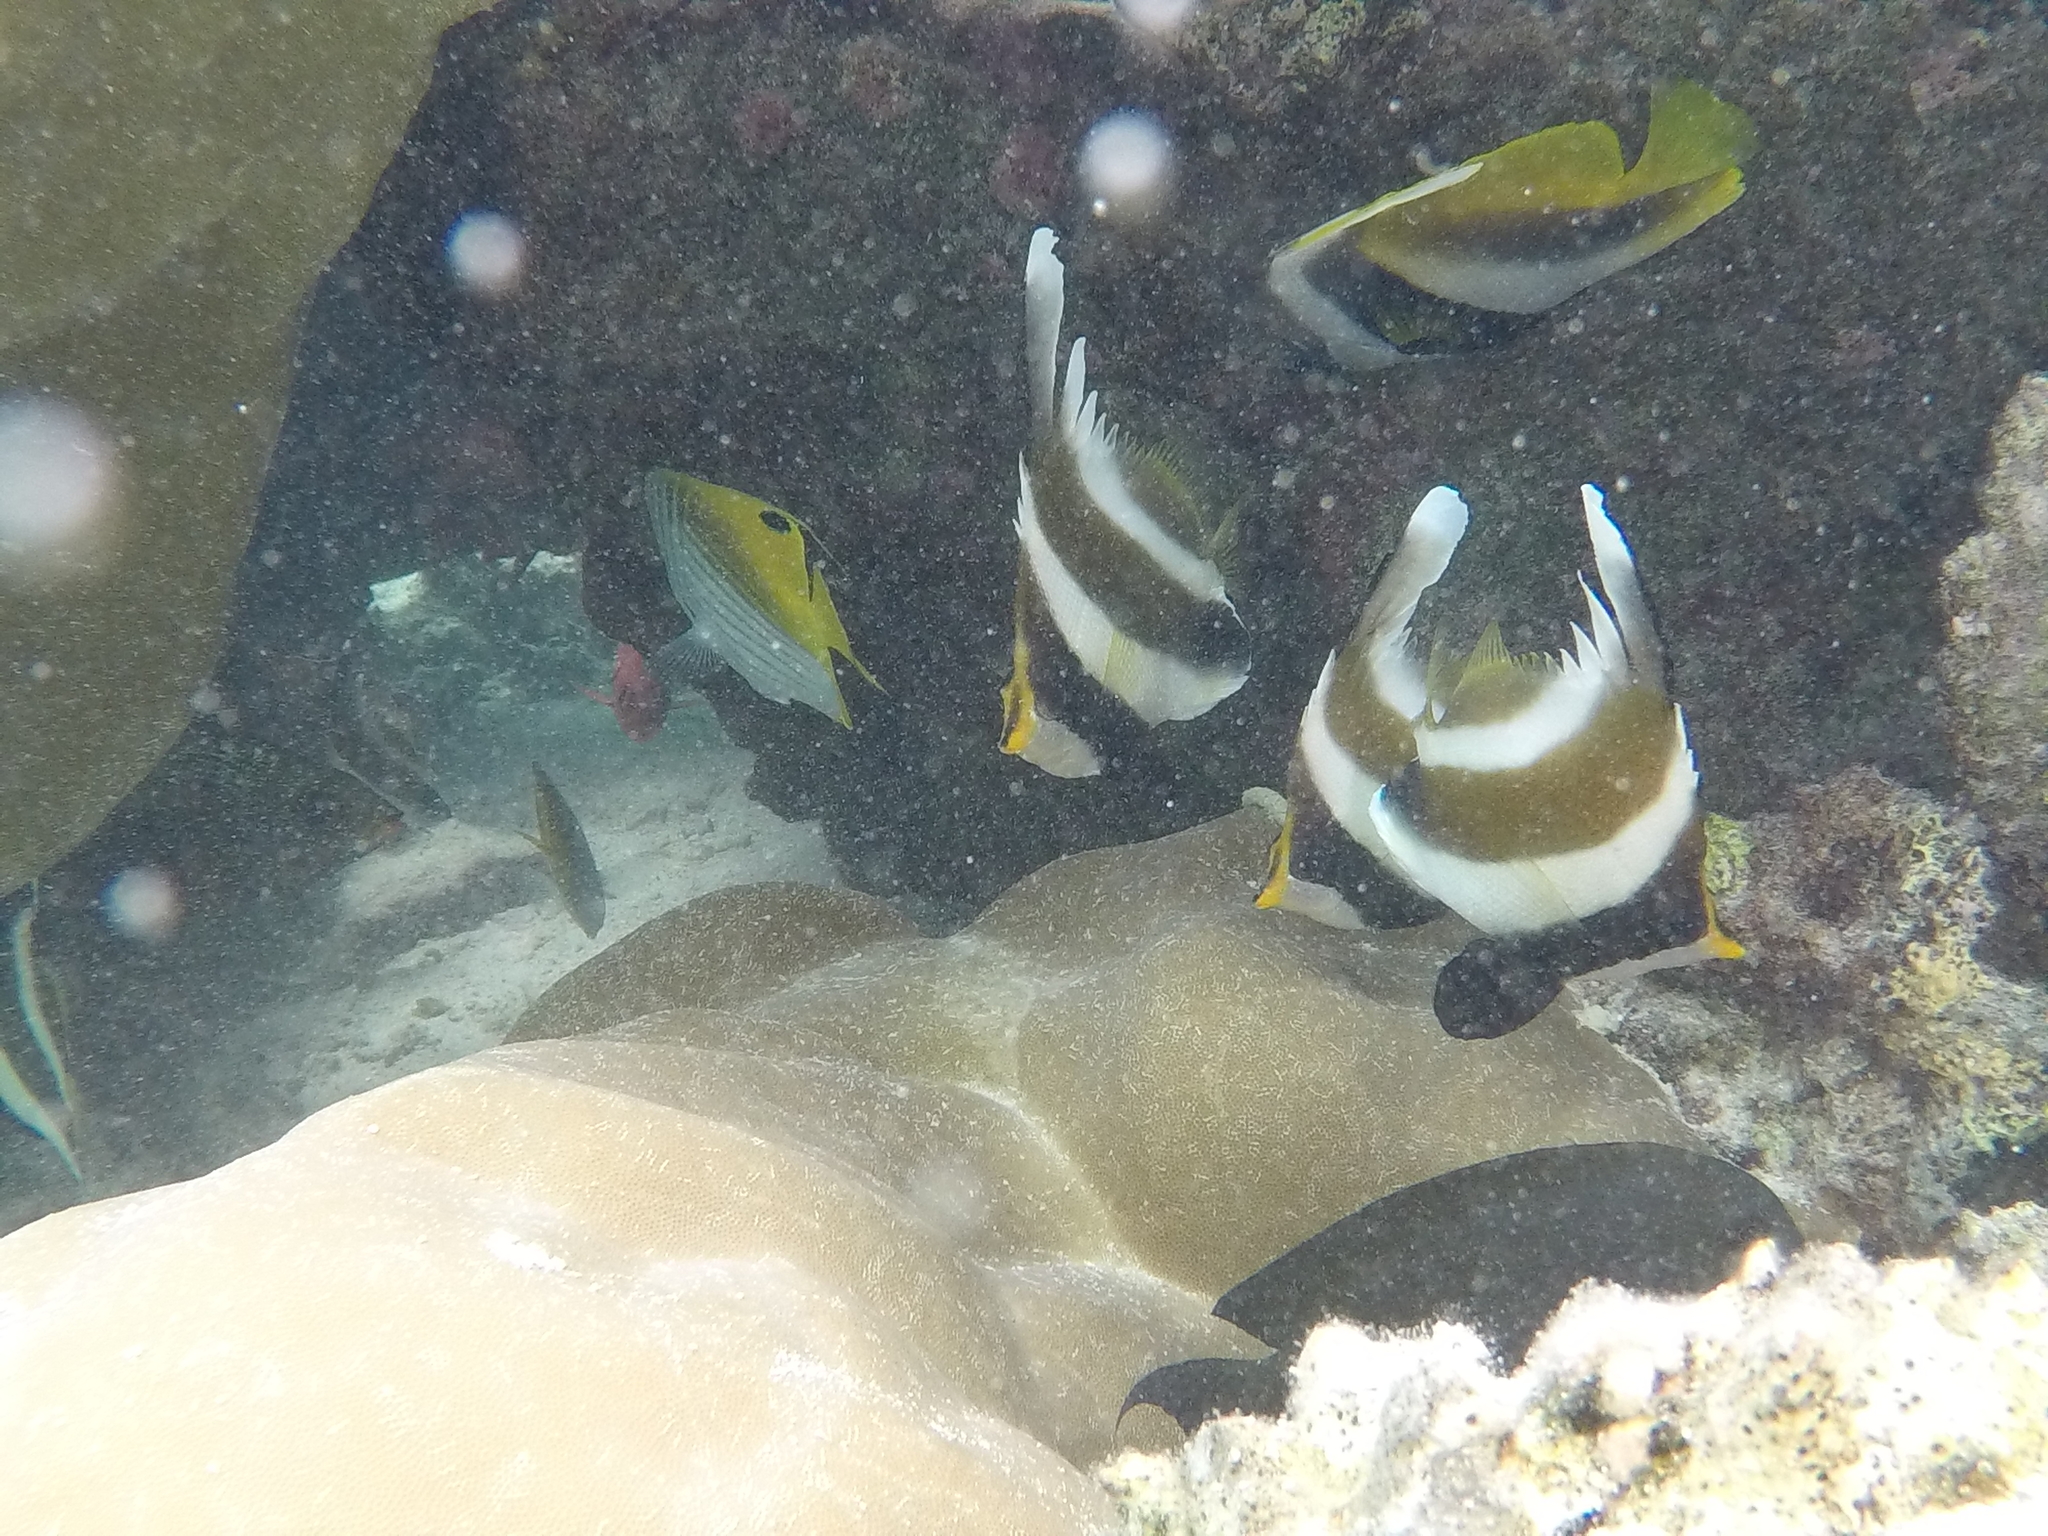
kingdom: Animalia
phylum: Chordata
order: Perciformes
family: Chaetodontidae
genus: Heniochus
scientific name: Heniochus chrysostomus
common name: Horned bannerfish
